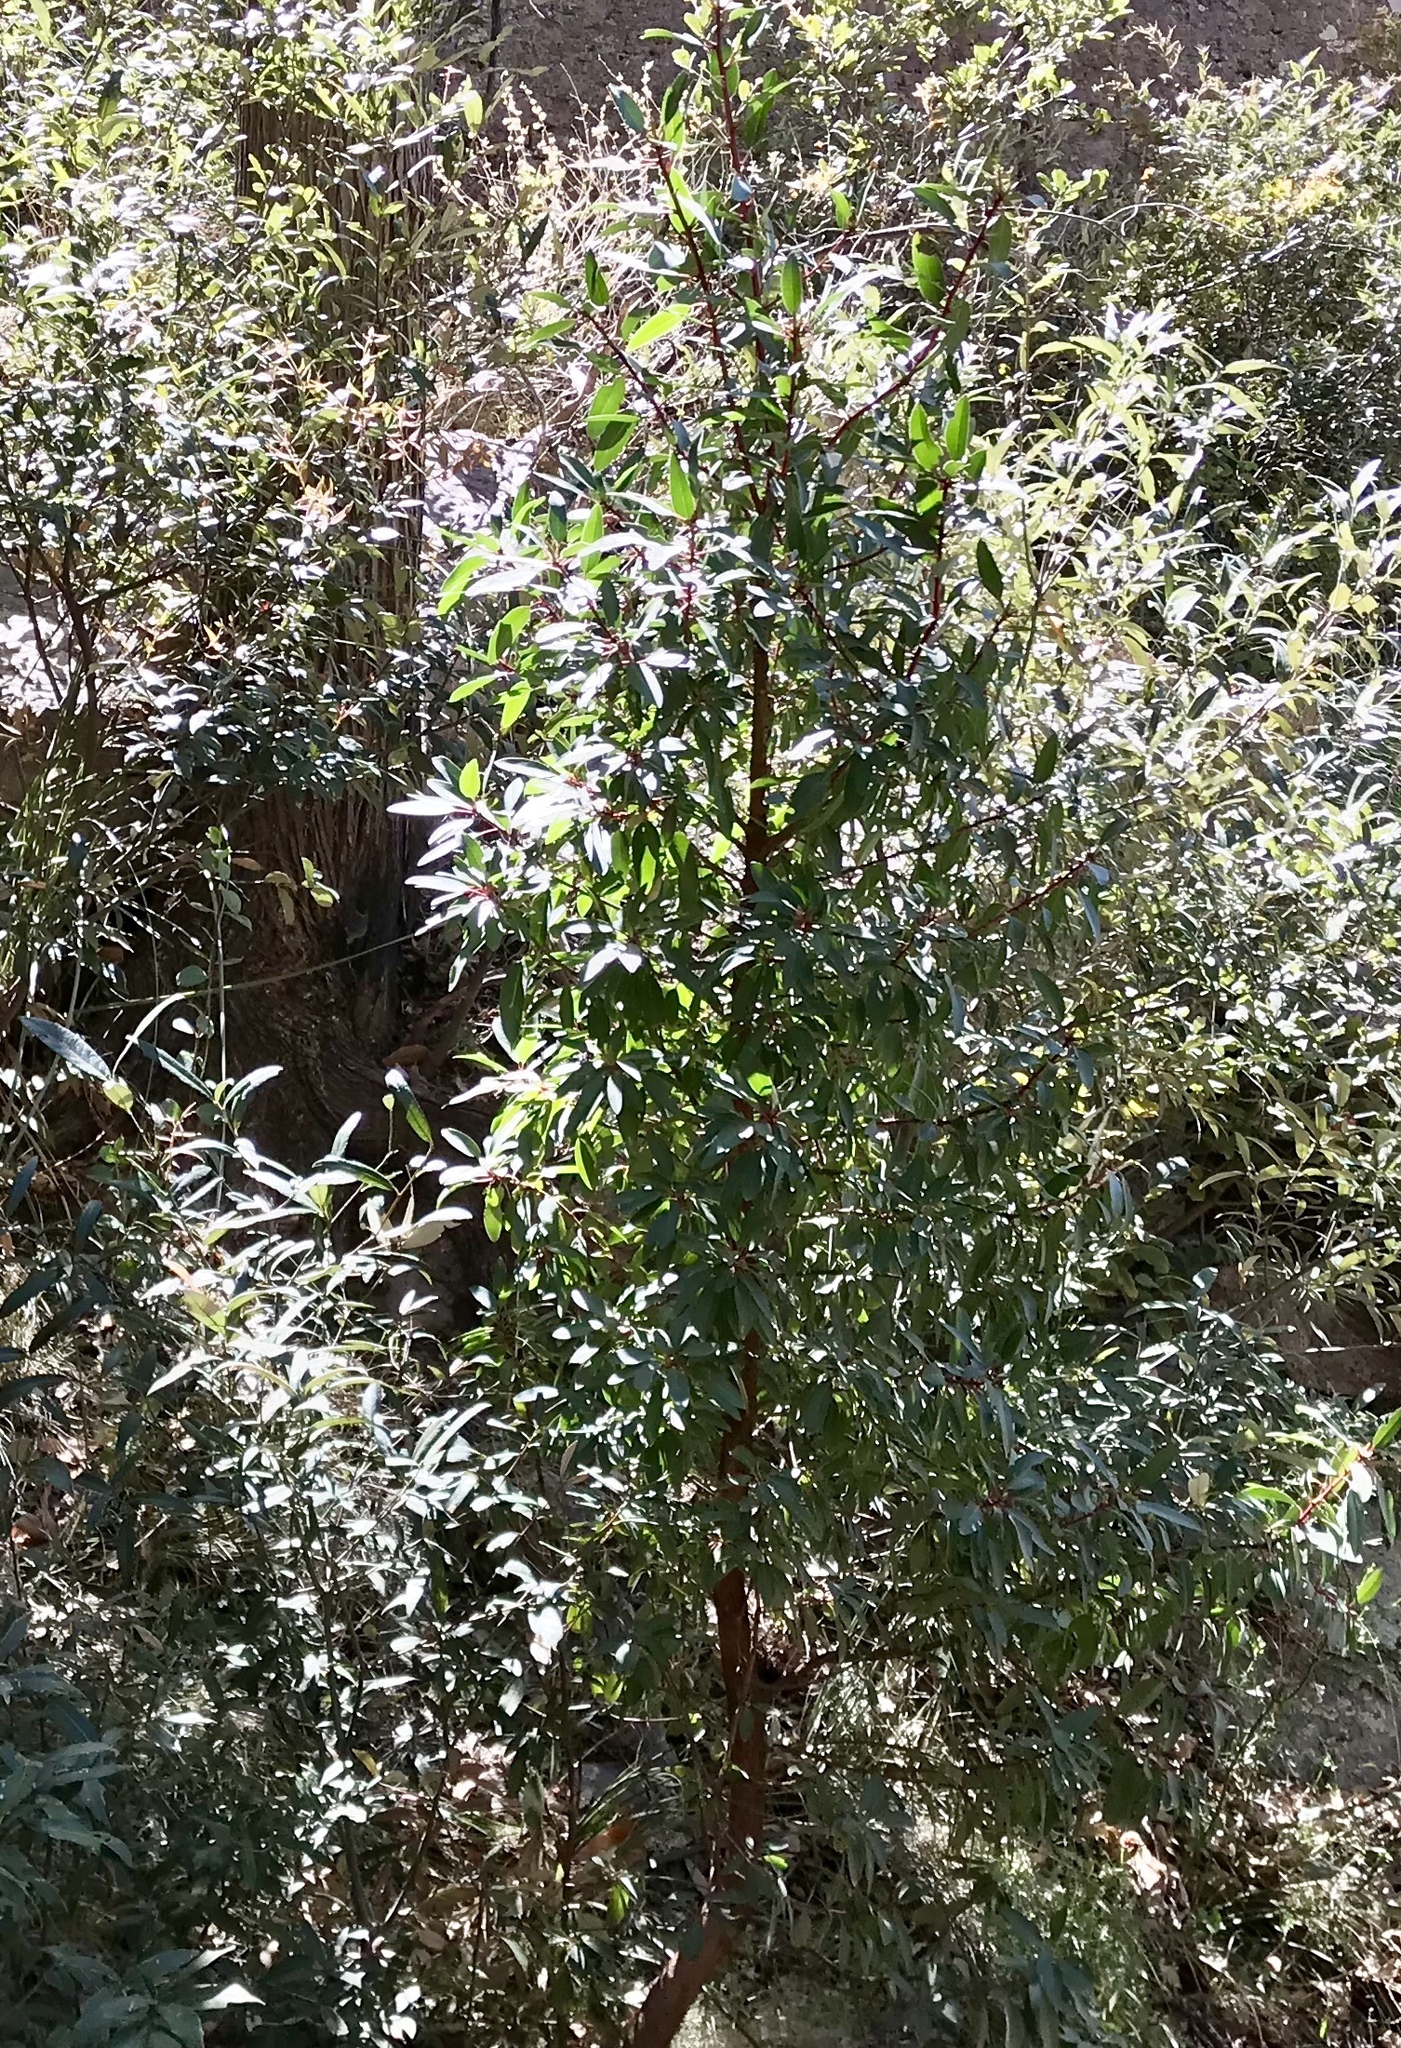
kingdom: Plantae
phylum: Tracheophyta
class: Magnoliopsida
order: Ericales
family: Ericaceae
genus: Arbutus
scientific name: Arbutus arizonica
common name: Arizona madrone
